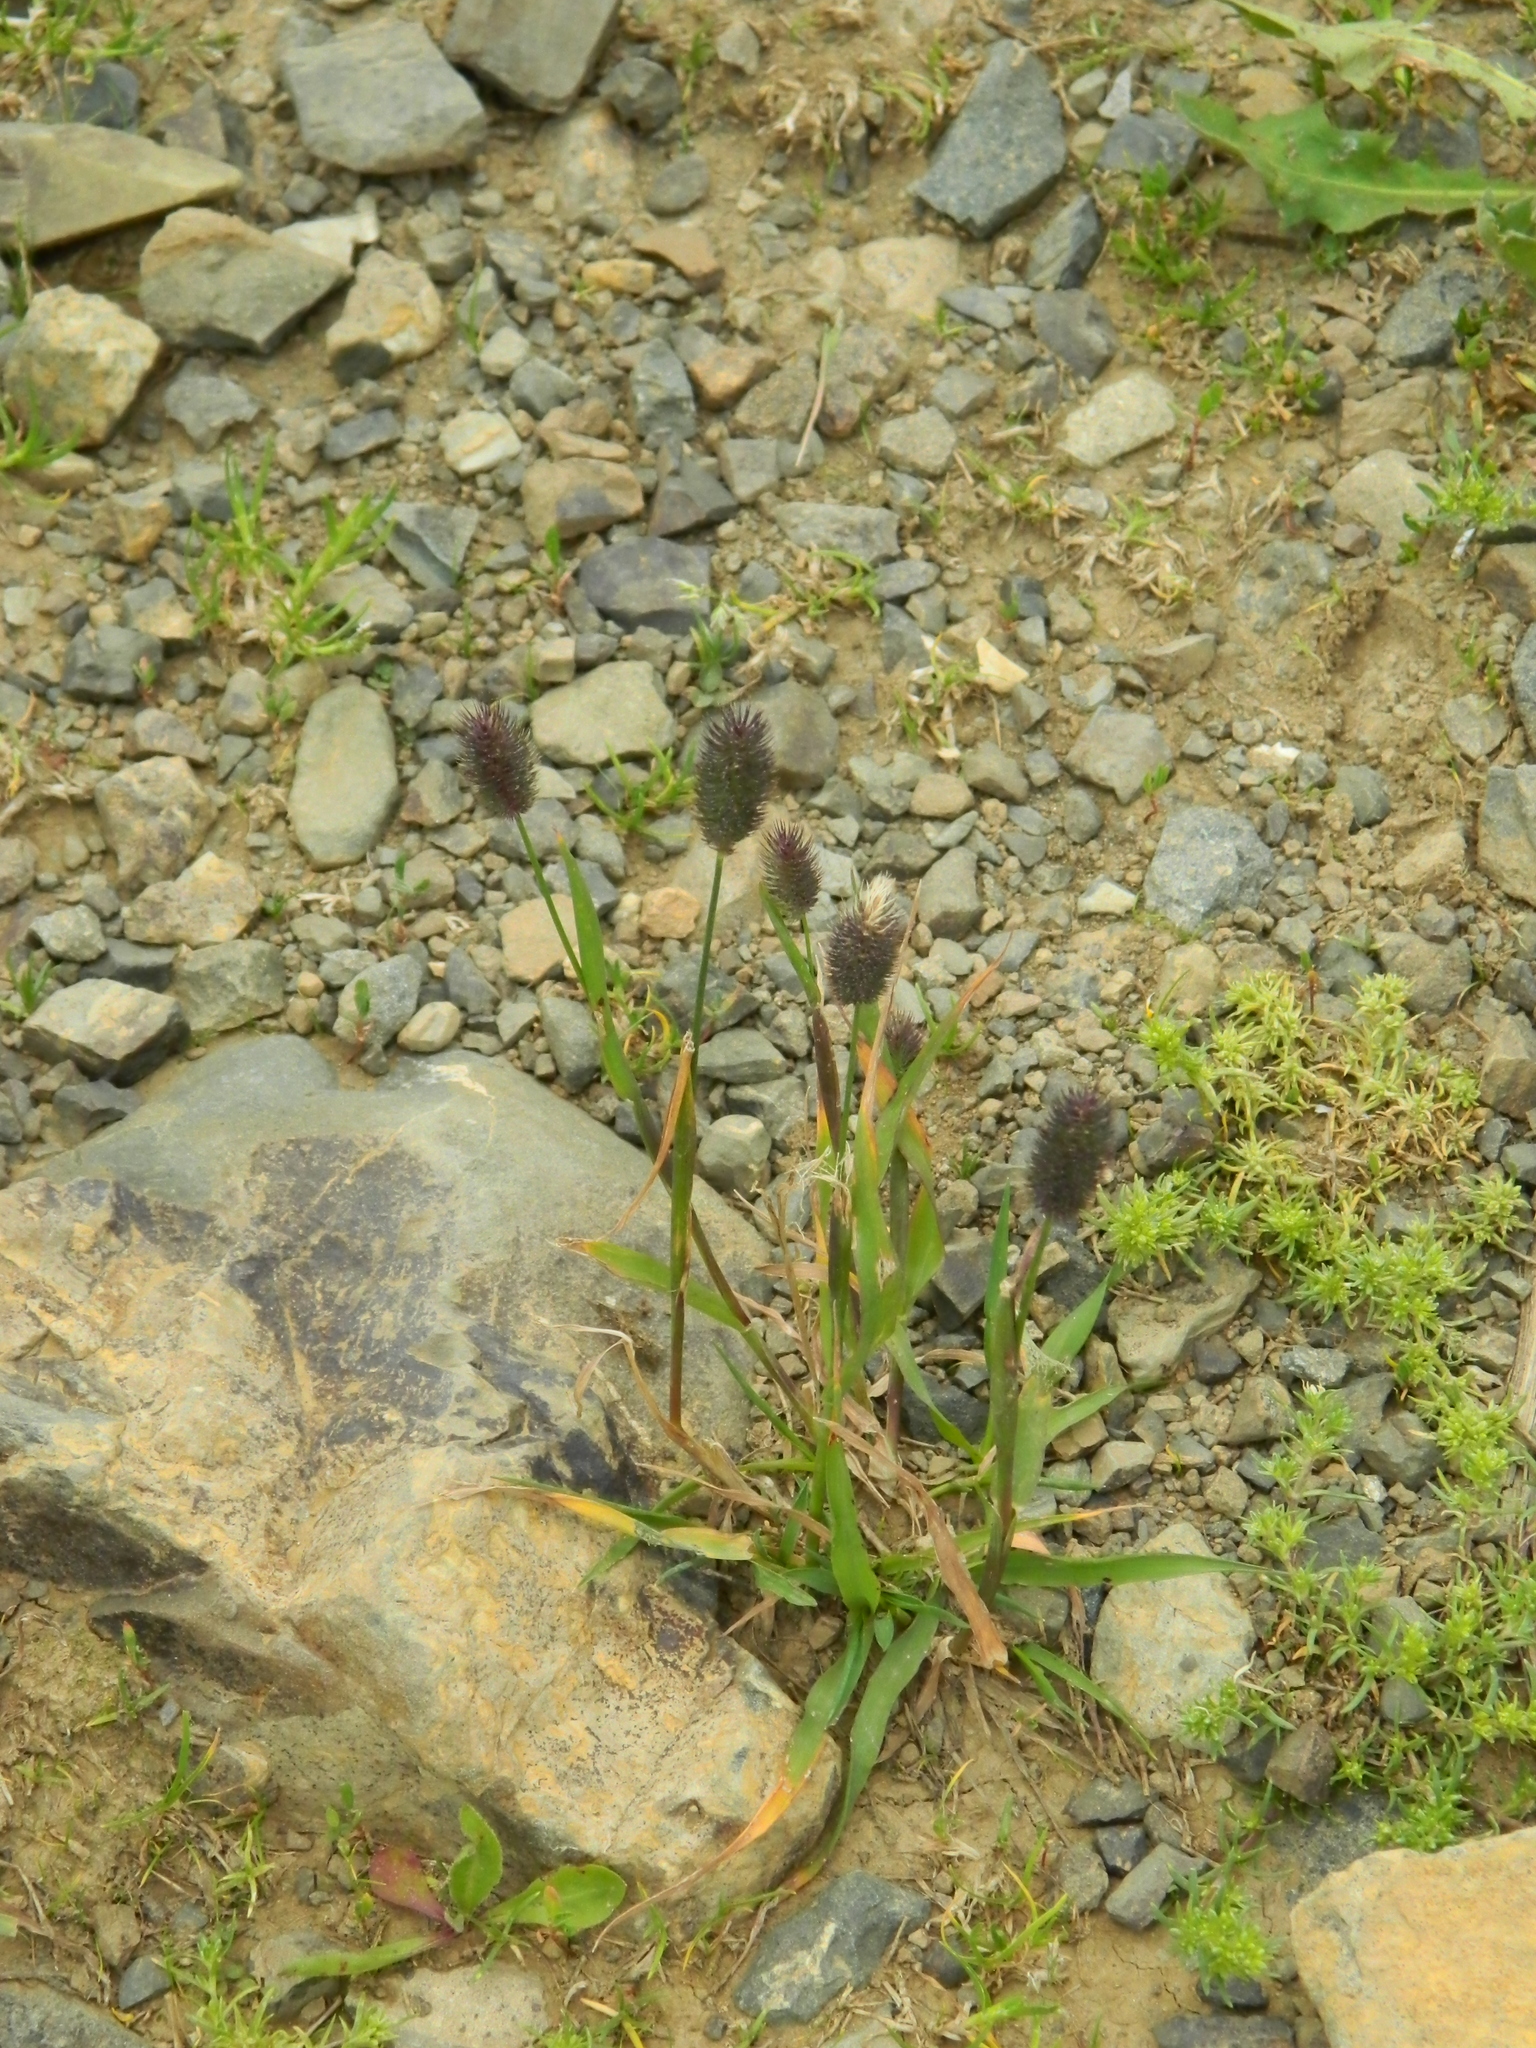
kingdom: Plantae
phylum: Tracheophyta
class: Liliopsida
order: Poales
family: Poaceae
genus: Phleum
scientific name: Phleum alpinum
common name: Alpine cat's-tail
